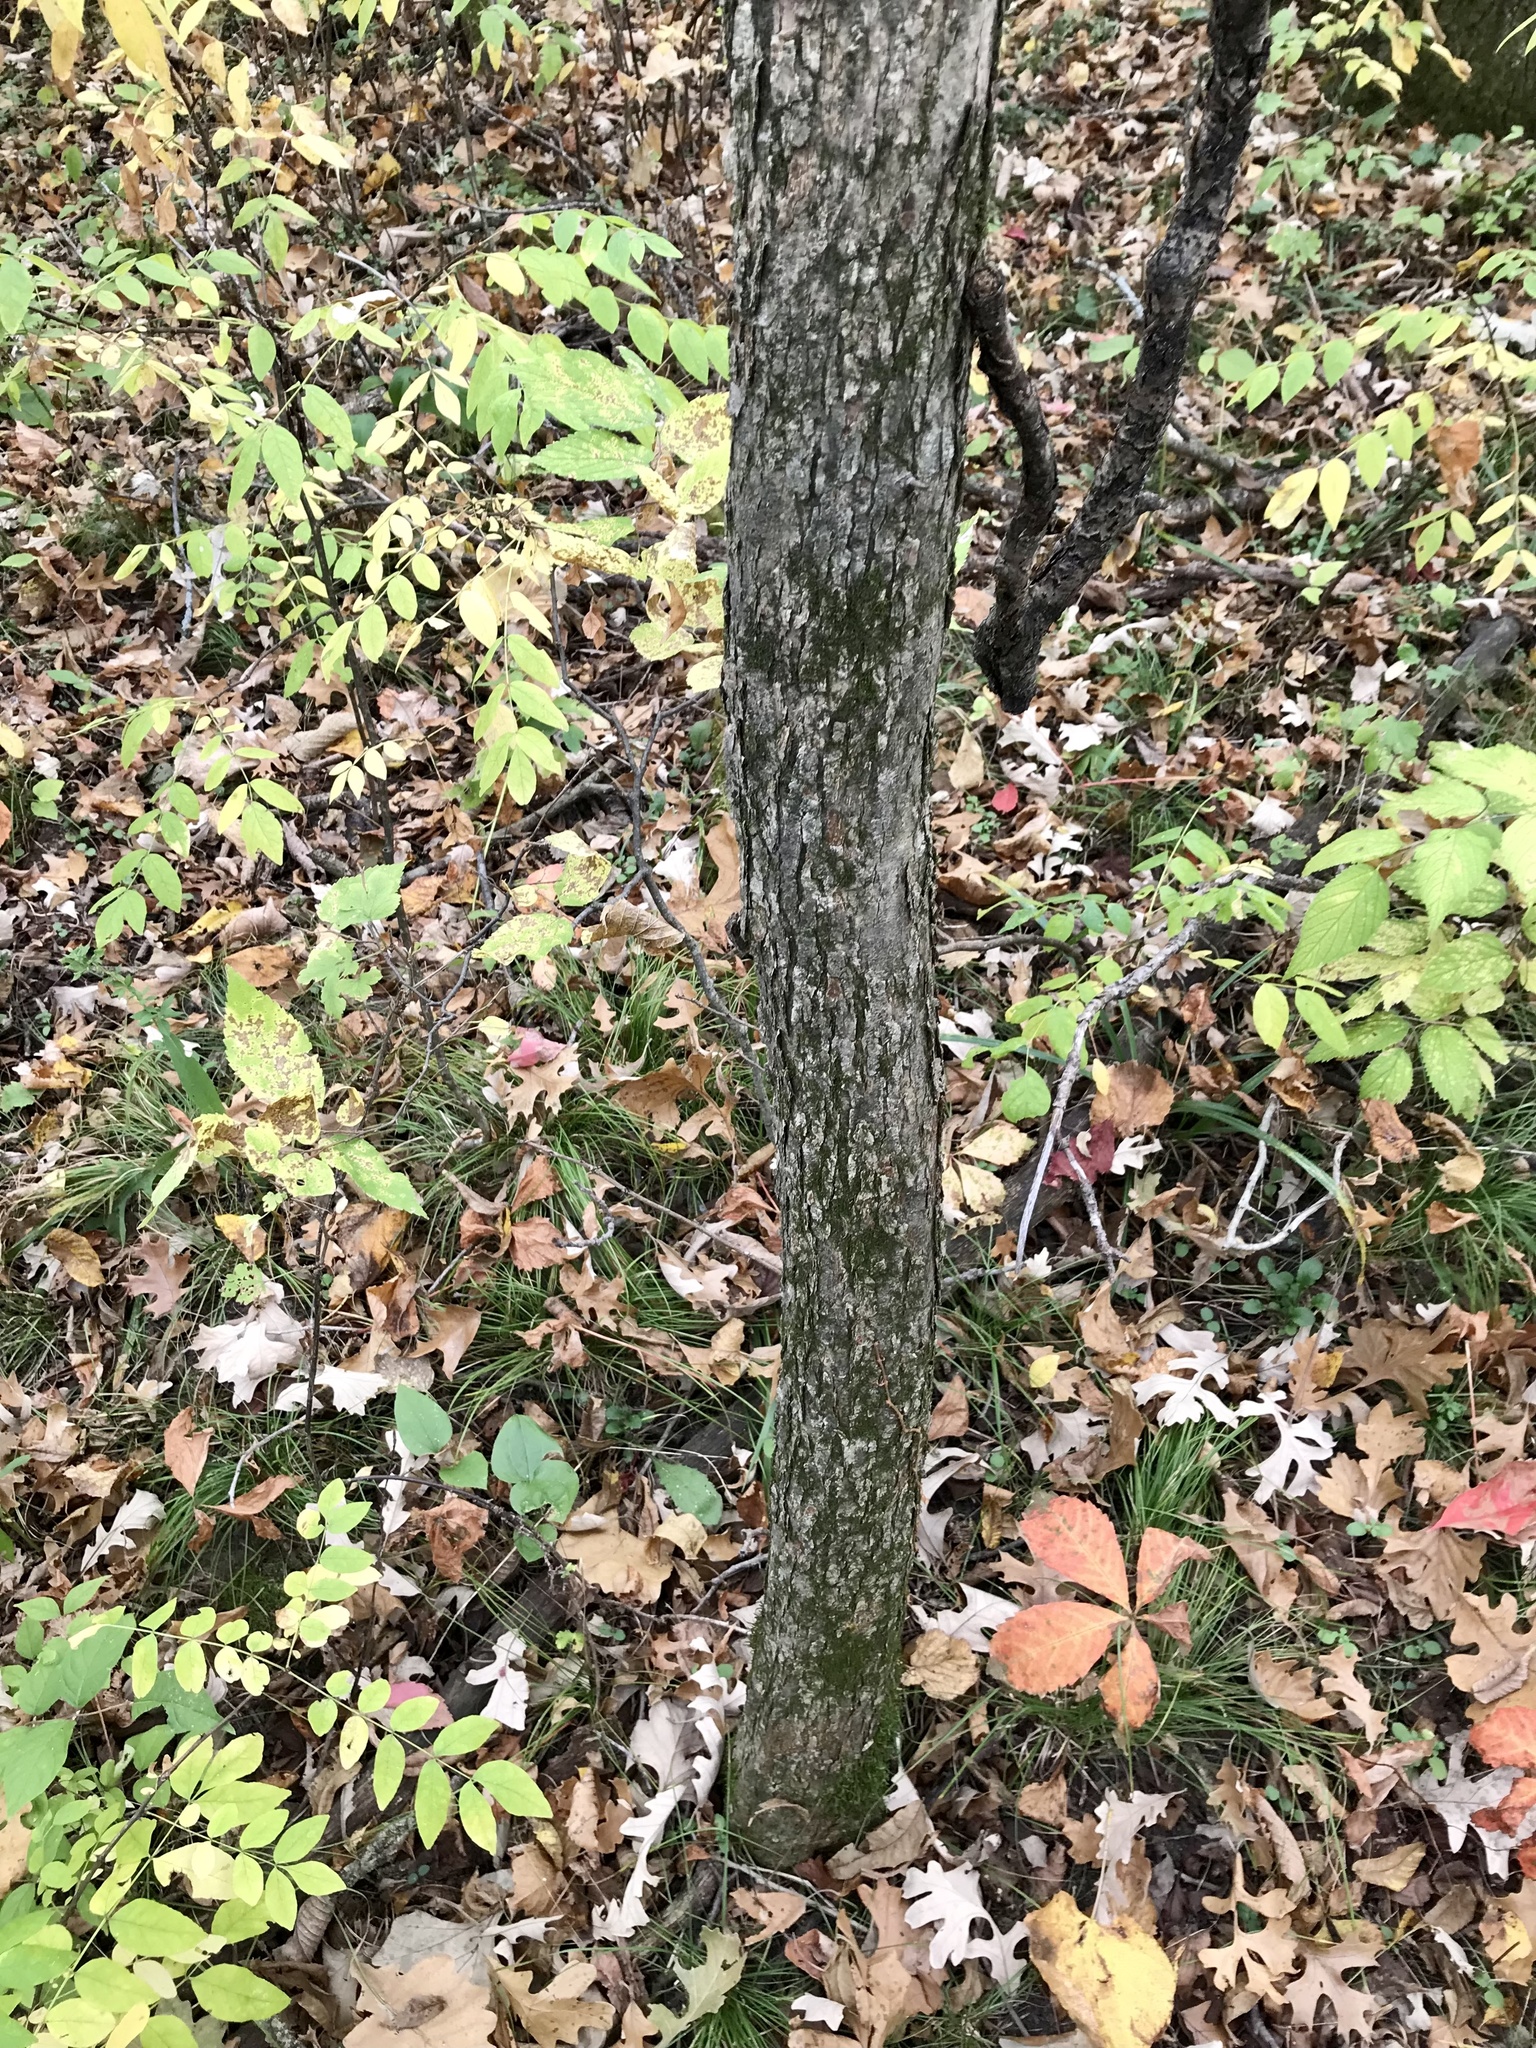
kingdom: Plantae
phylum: Tracheophyta
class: Magnoliopsida
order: Rosales
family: Rosaceae
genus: Crataegus
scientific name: Crataegus punctata
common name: Dotted hawthorn
